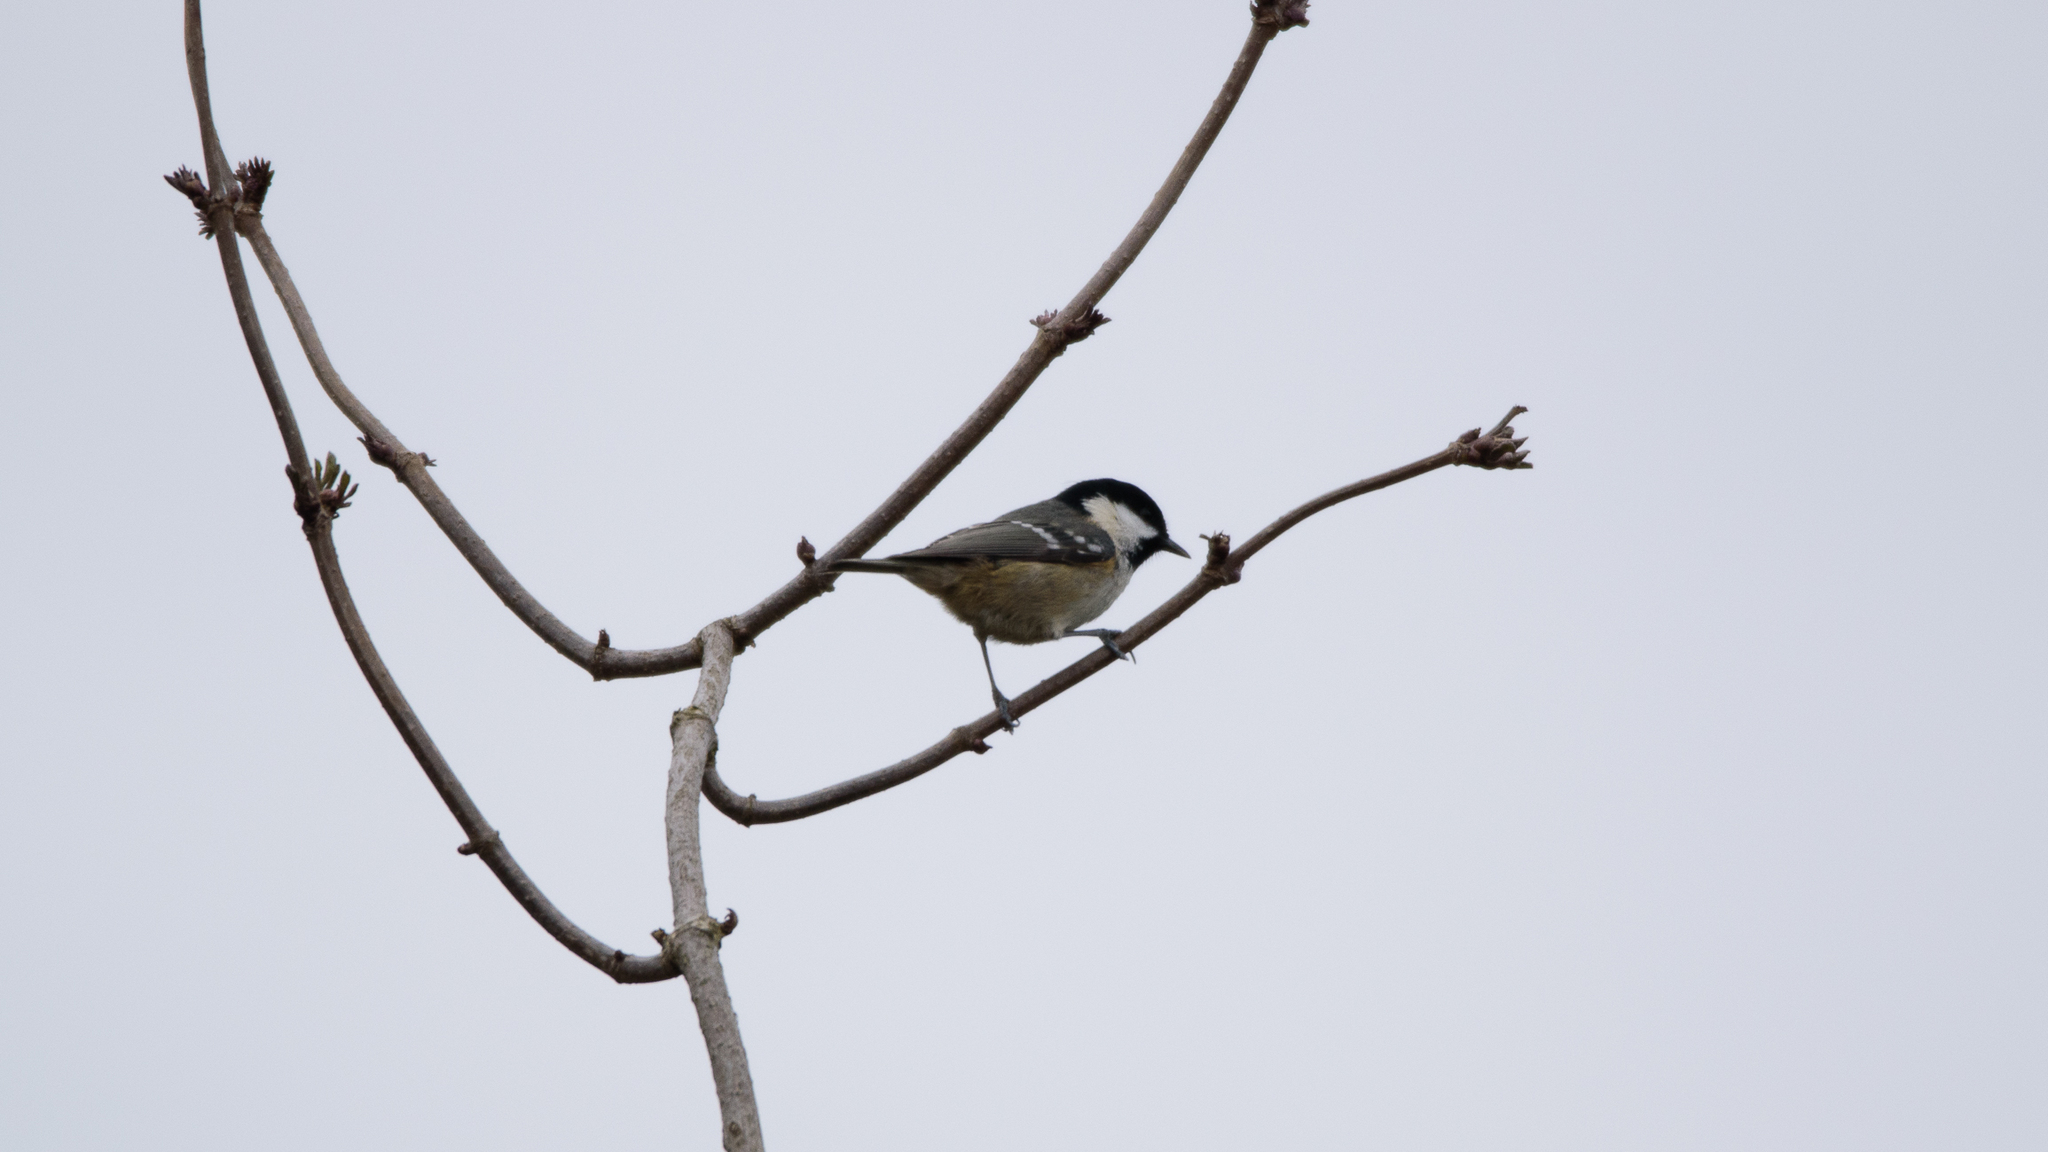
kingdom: Animalia
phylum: Chordata
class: Aves
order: Passeriformes
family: Paridae
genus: Periparus
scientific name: Periparus ater
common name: Coal tit
